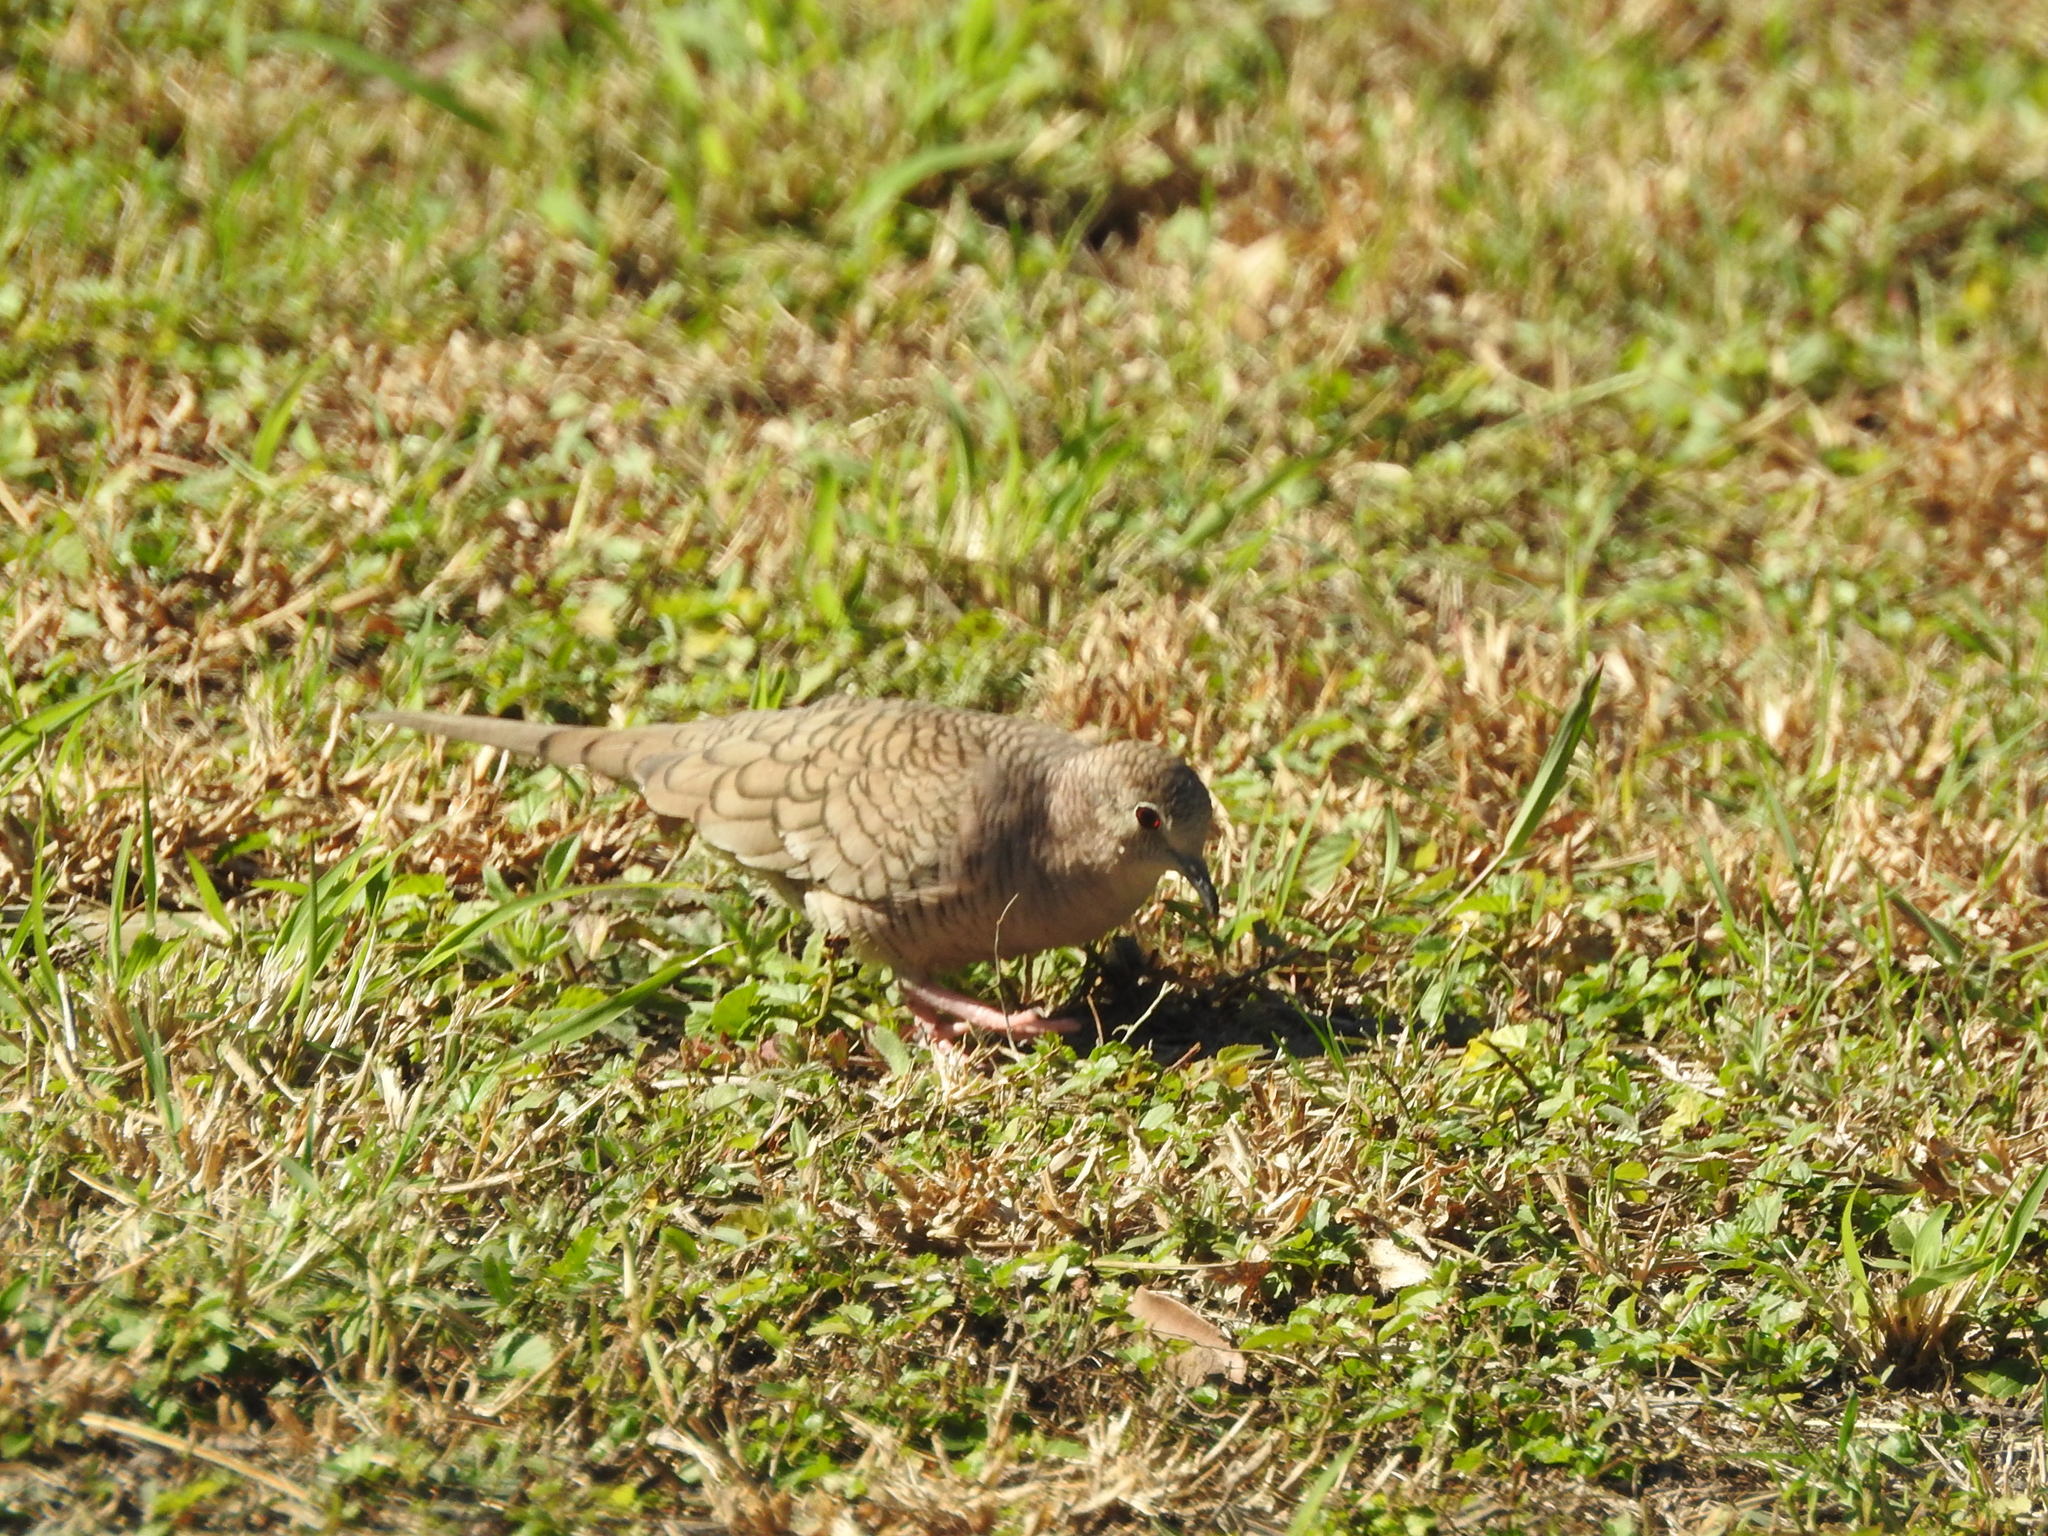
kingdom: Animalia
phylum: Chordata
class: Aves
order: Columbiformes
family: Columbidae
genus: Columbina
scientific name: Columbina inca
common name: Inca dove
